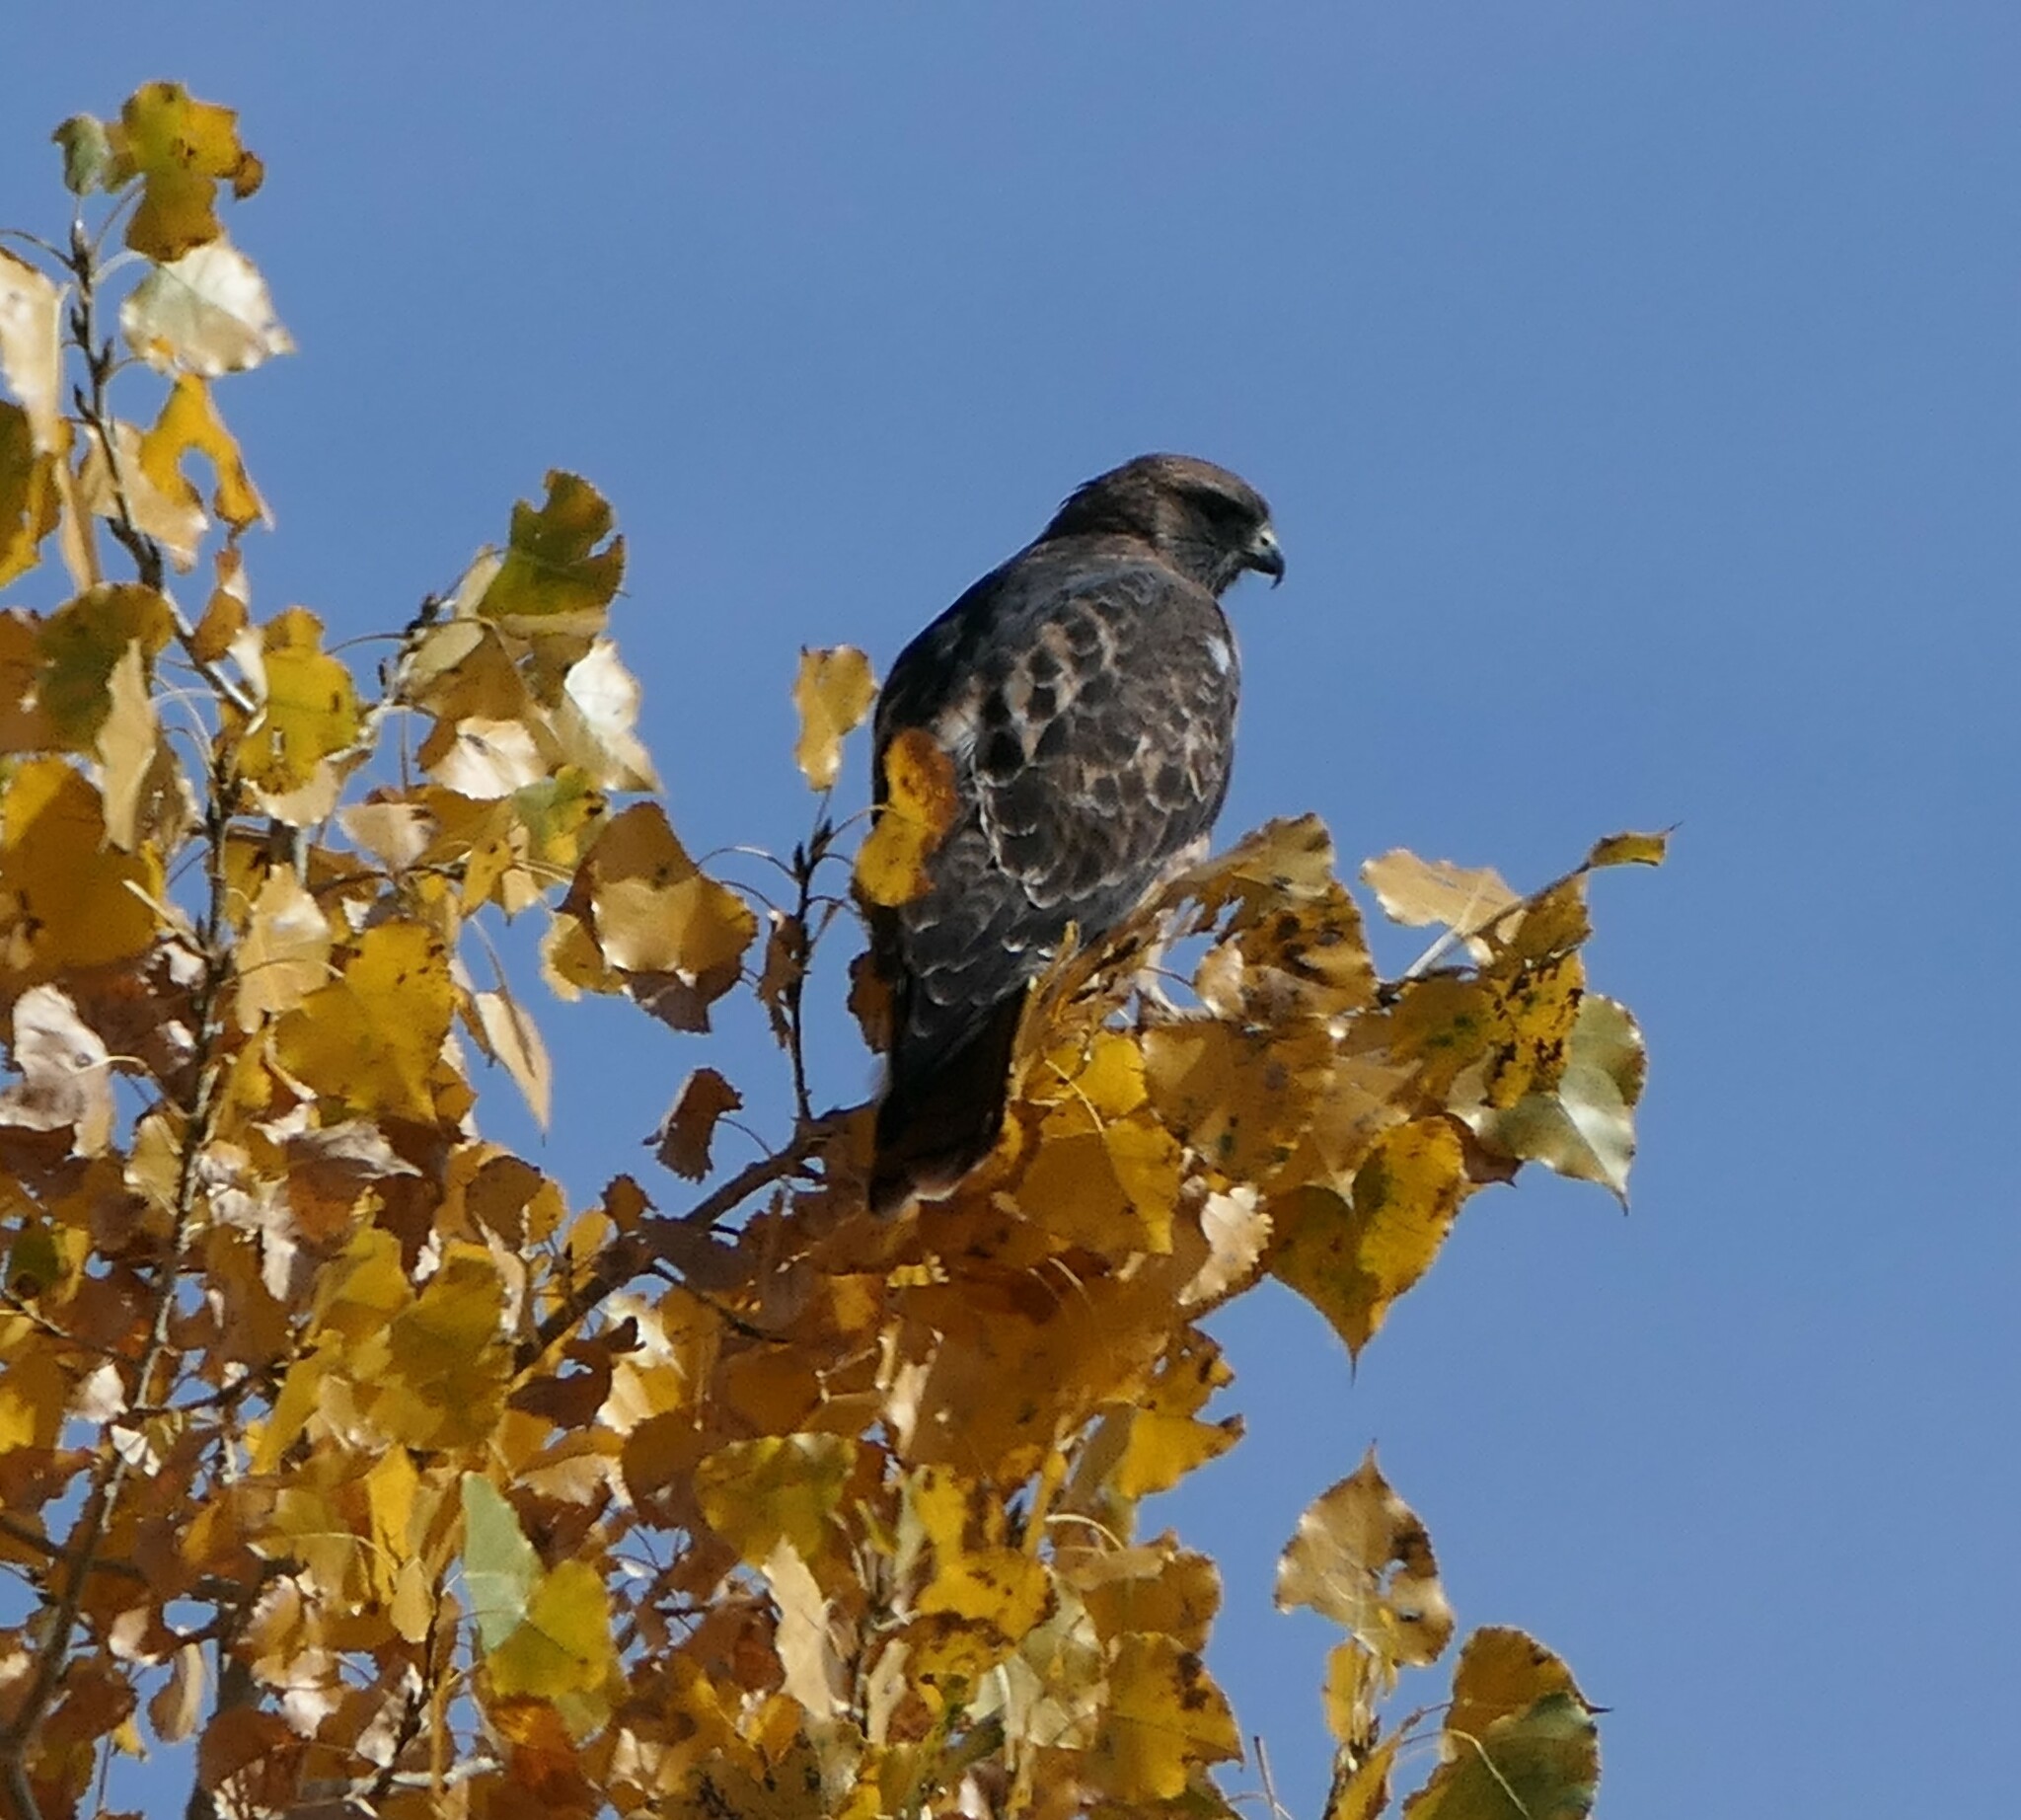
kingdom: Animalia
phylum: Chordata
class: Aves
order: Accipitriformes
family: Accipitridae
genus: Buteo
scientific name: Buteo jamaicensis
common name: Red-tailed hawk
